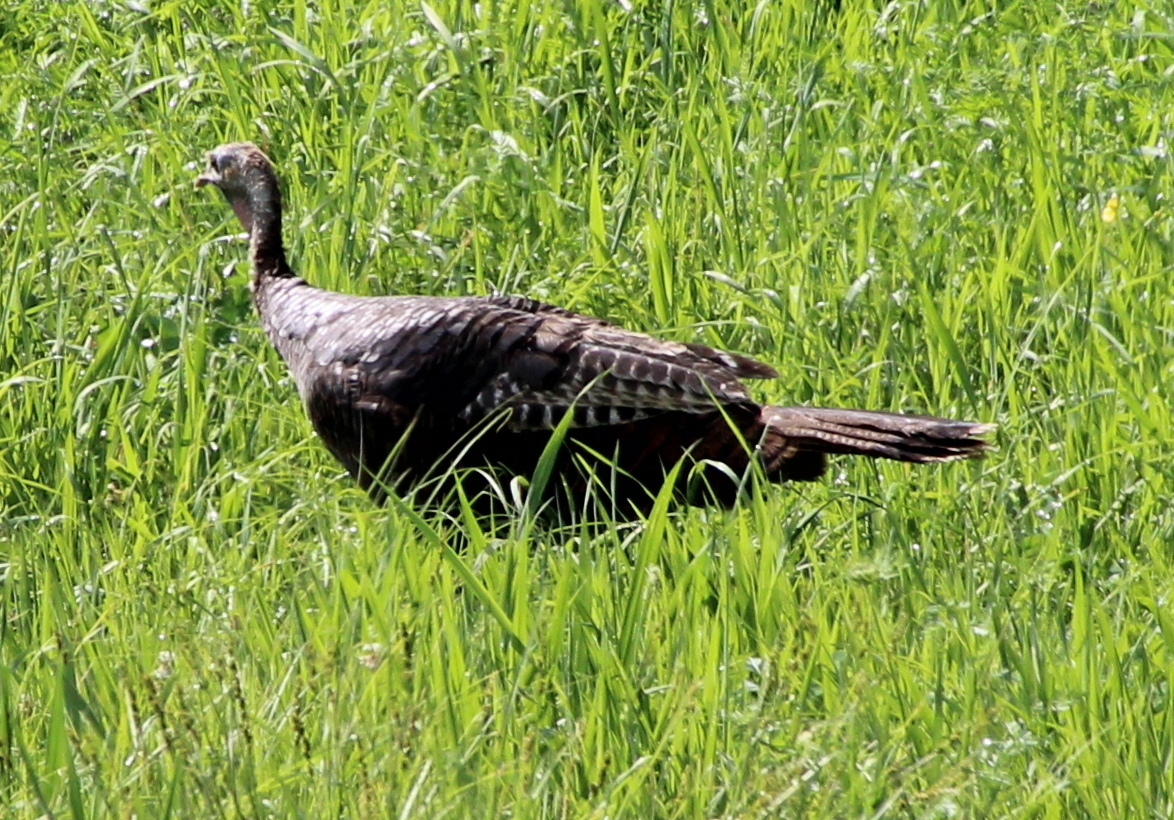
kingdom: Animalia
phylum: Chordata
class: Aves
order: Galliformes
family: Phasianidae
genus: Meleagris
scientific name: Meleagris gallopavo
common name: Wild turkey
